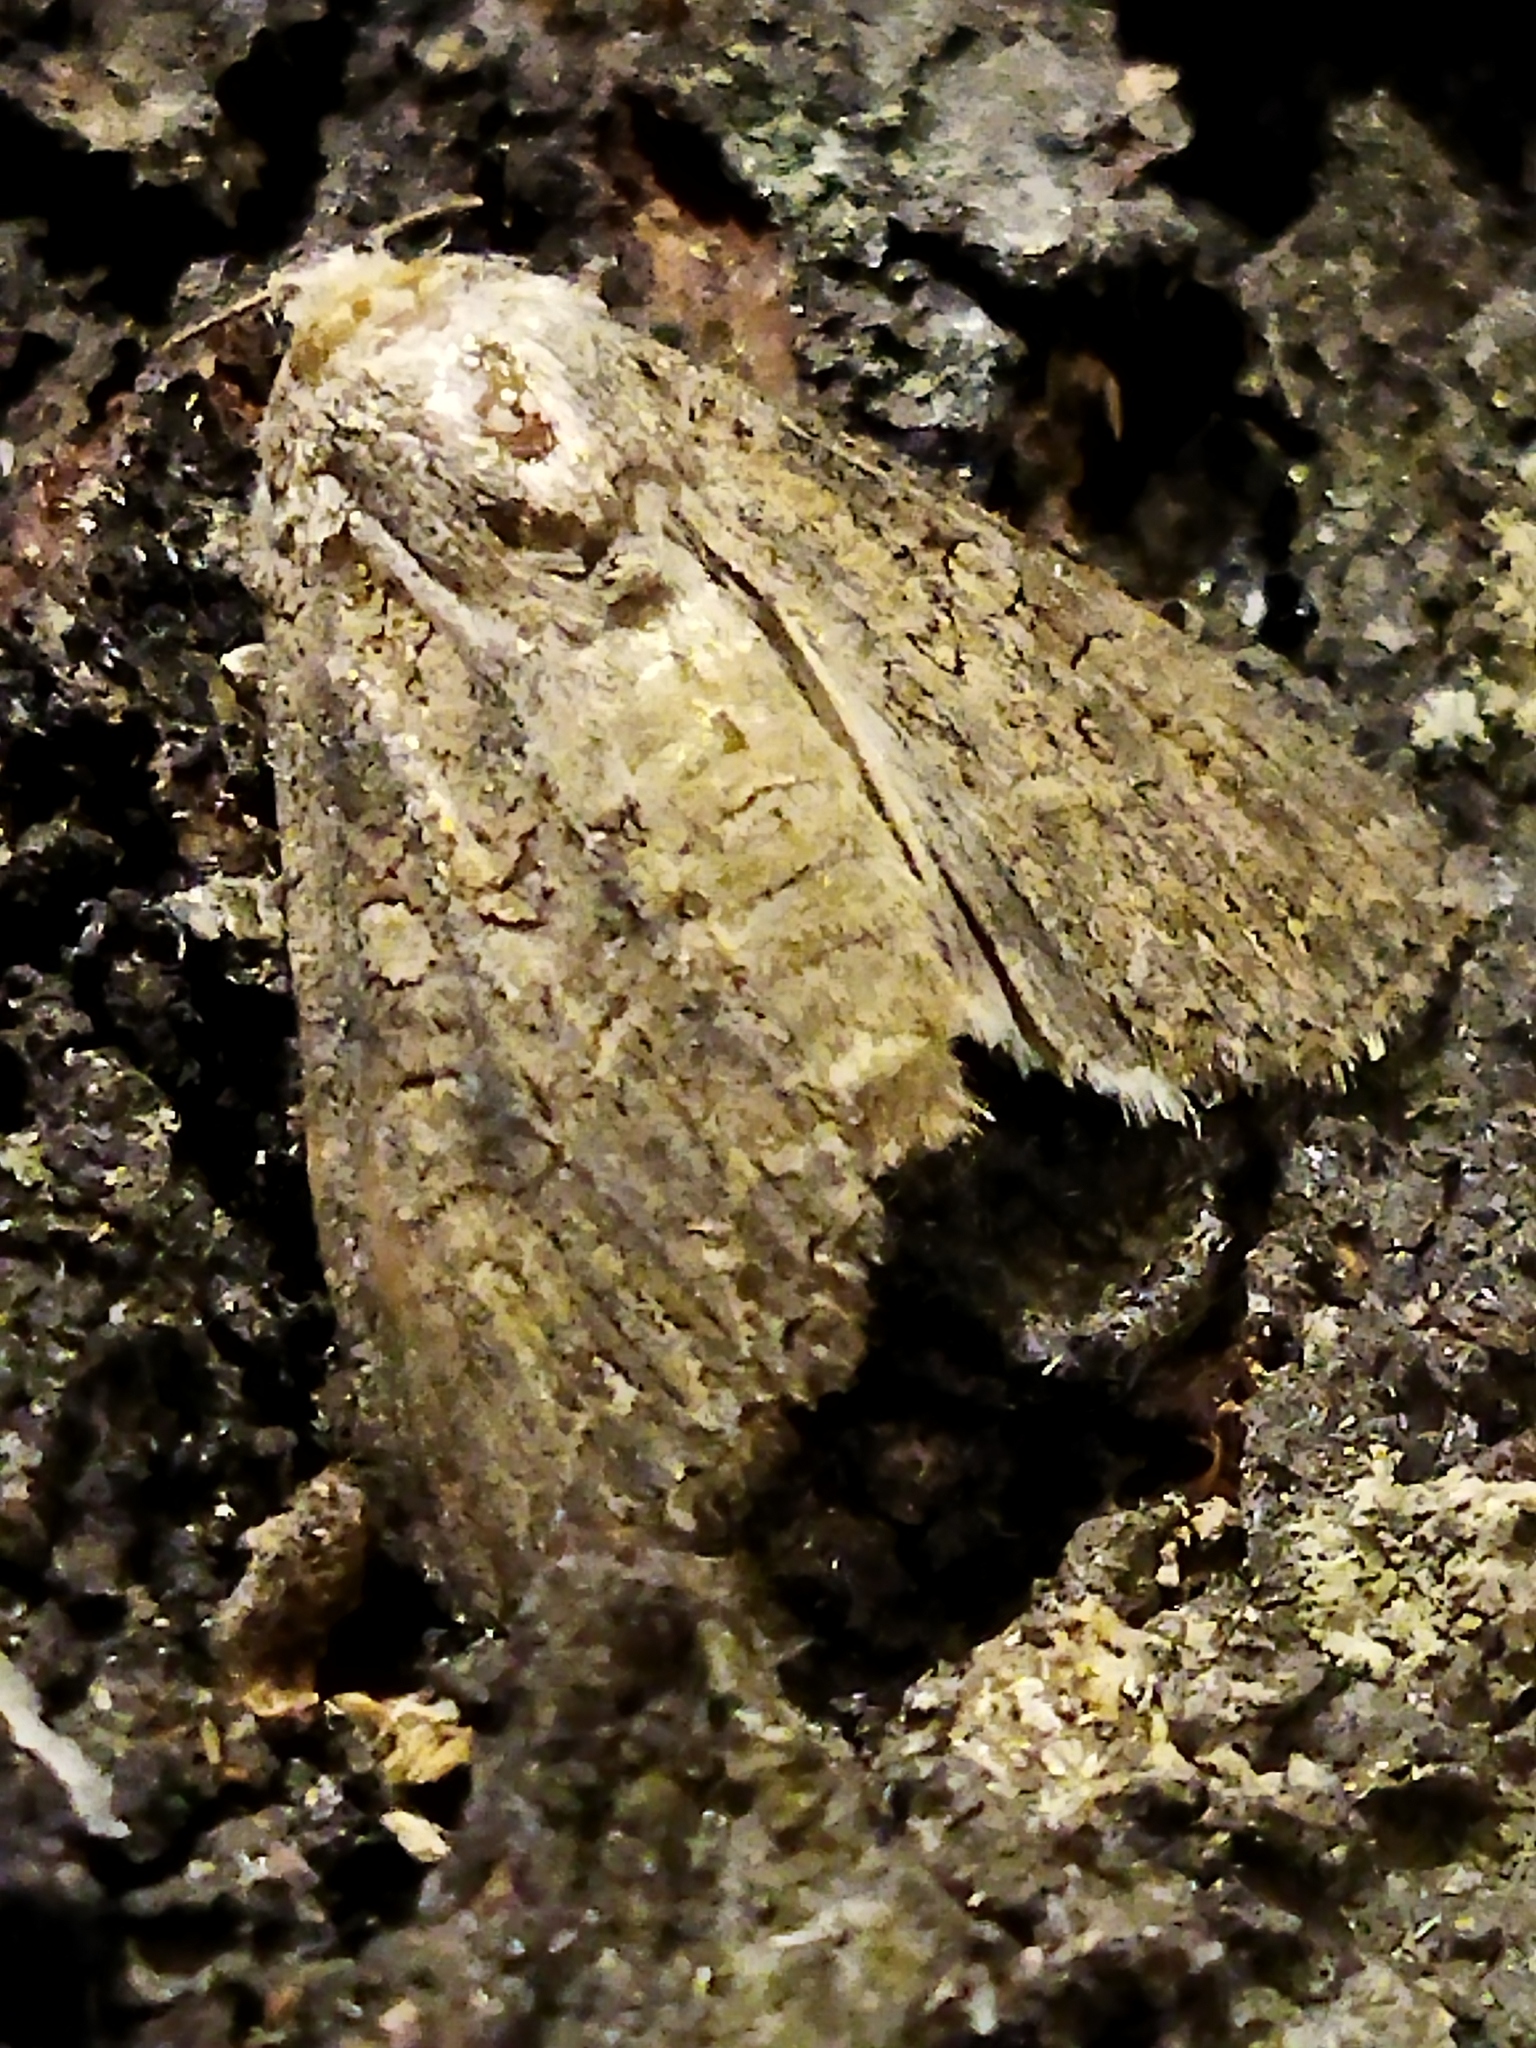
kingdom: Animalia
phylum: Arthropoda
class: Insecta
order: Lepidoptera
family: Noctuidae
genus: Anarta
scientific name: Anarta trifolii
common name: Clover cutworm moth
